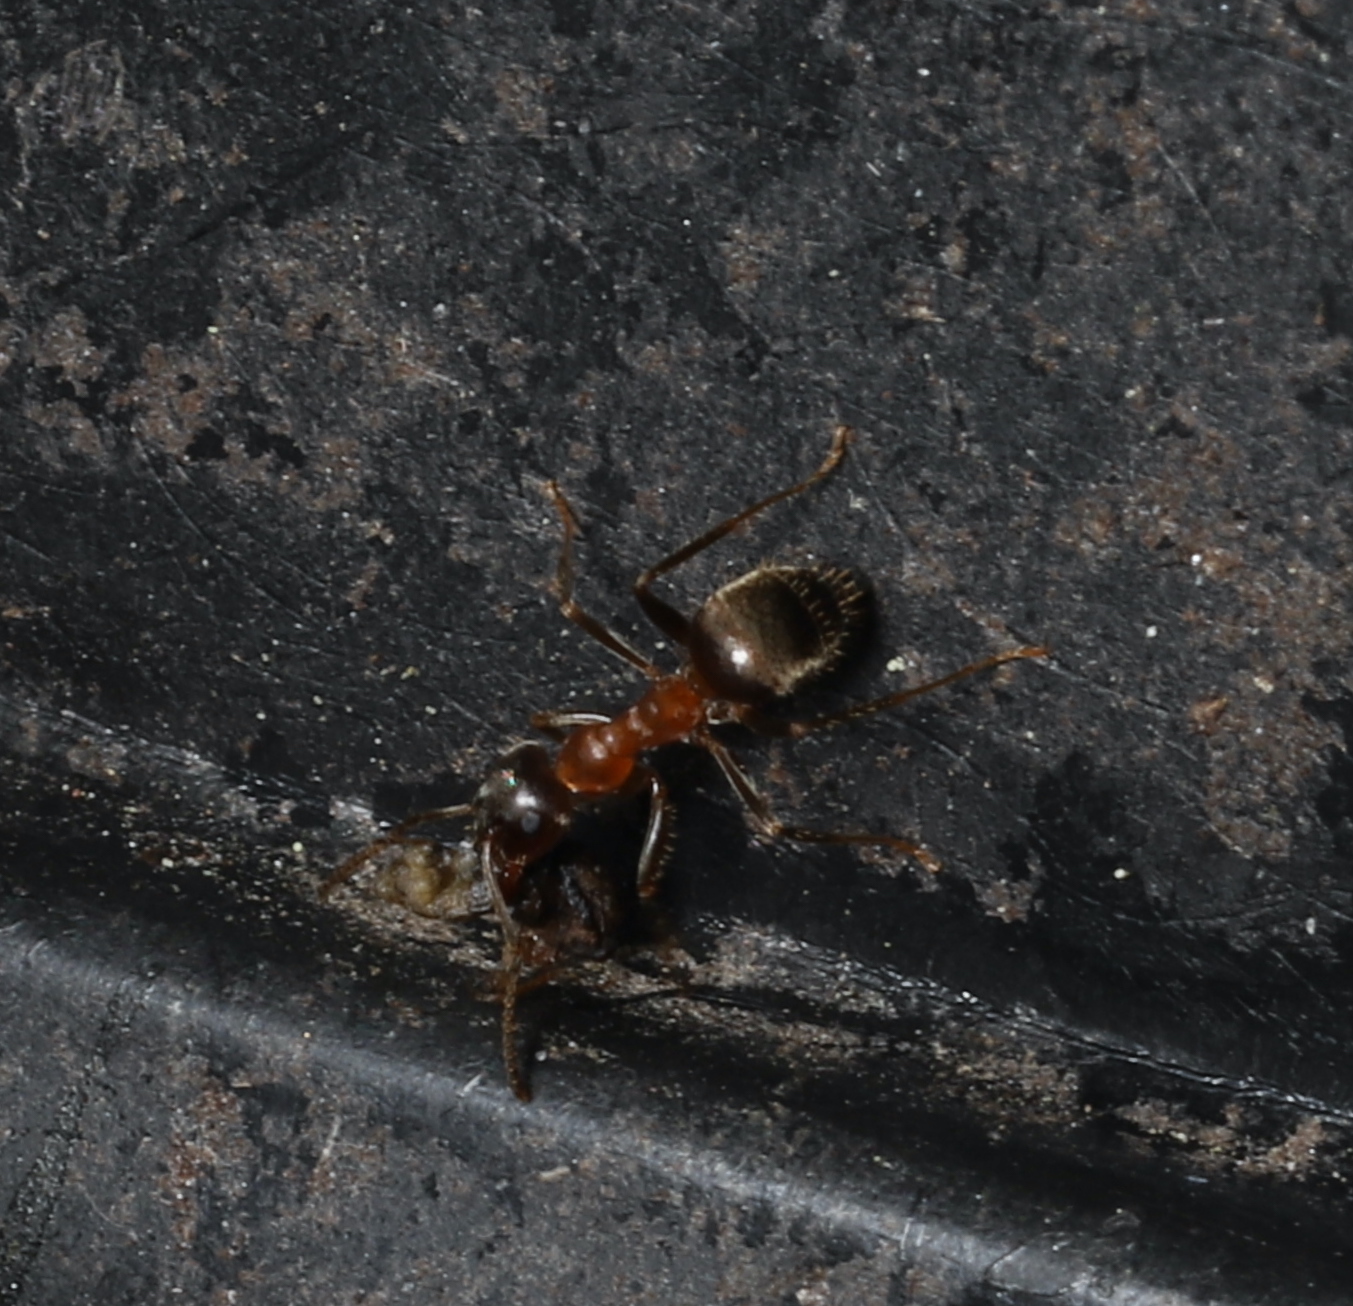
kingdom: Animalia
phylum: Arthropoda
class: Insecta
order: Hymenoptera
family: Formicidae
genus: Lasius
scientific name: Lasius emarginatus
